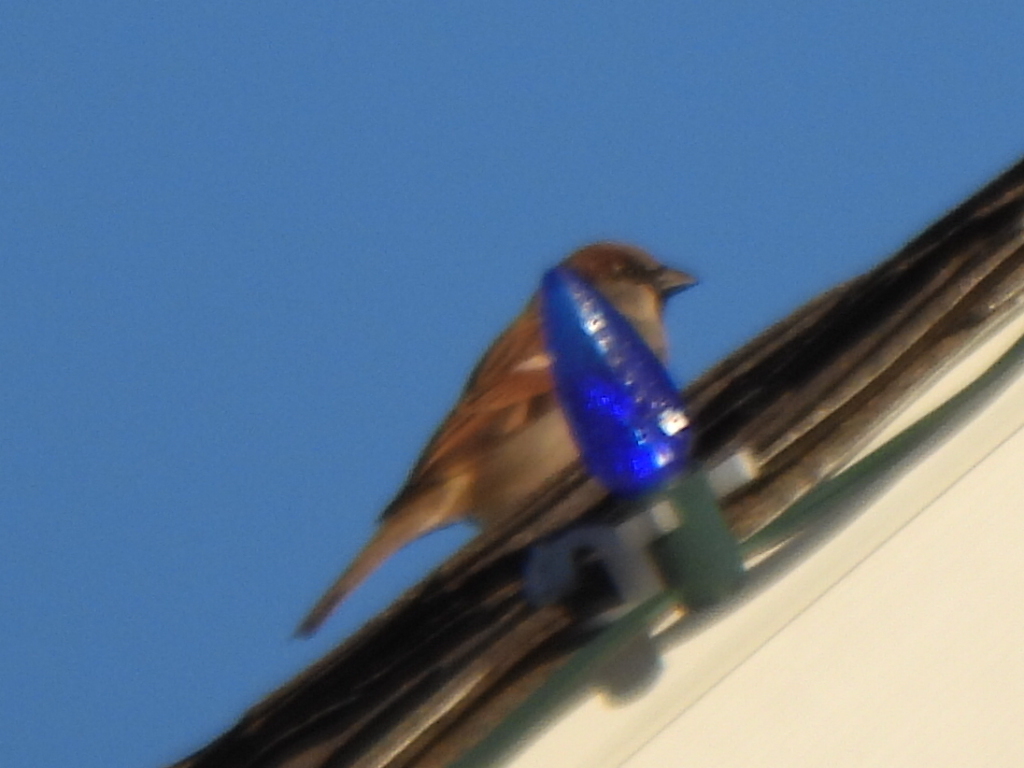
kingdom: Animalia
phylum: Chordata
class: Aves
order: Passeriformes
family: Passeridae
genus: Passer
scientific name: Passer domesticus
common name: House sparrow
